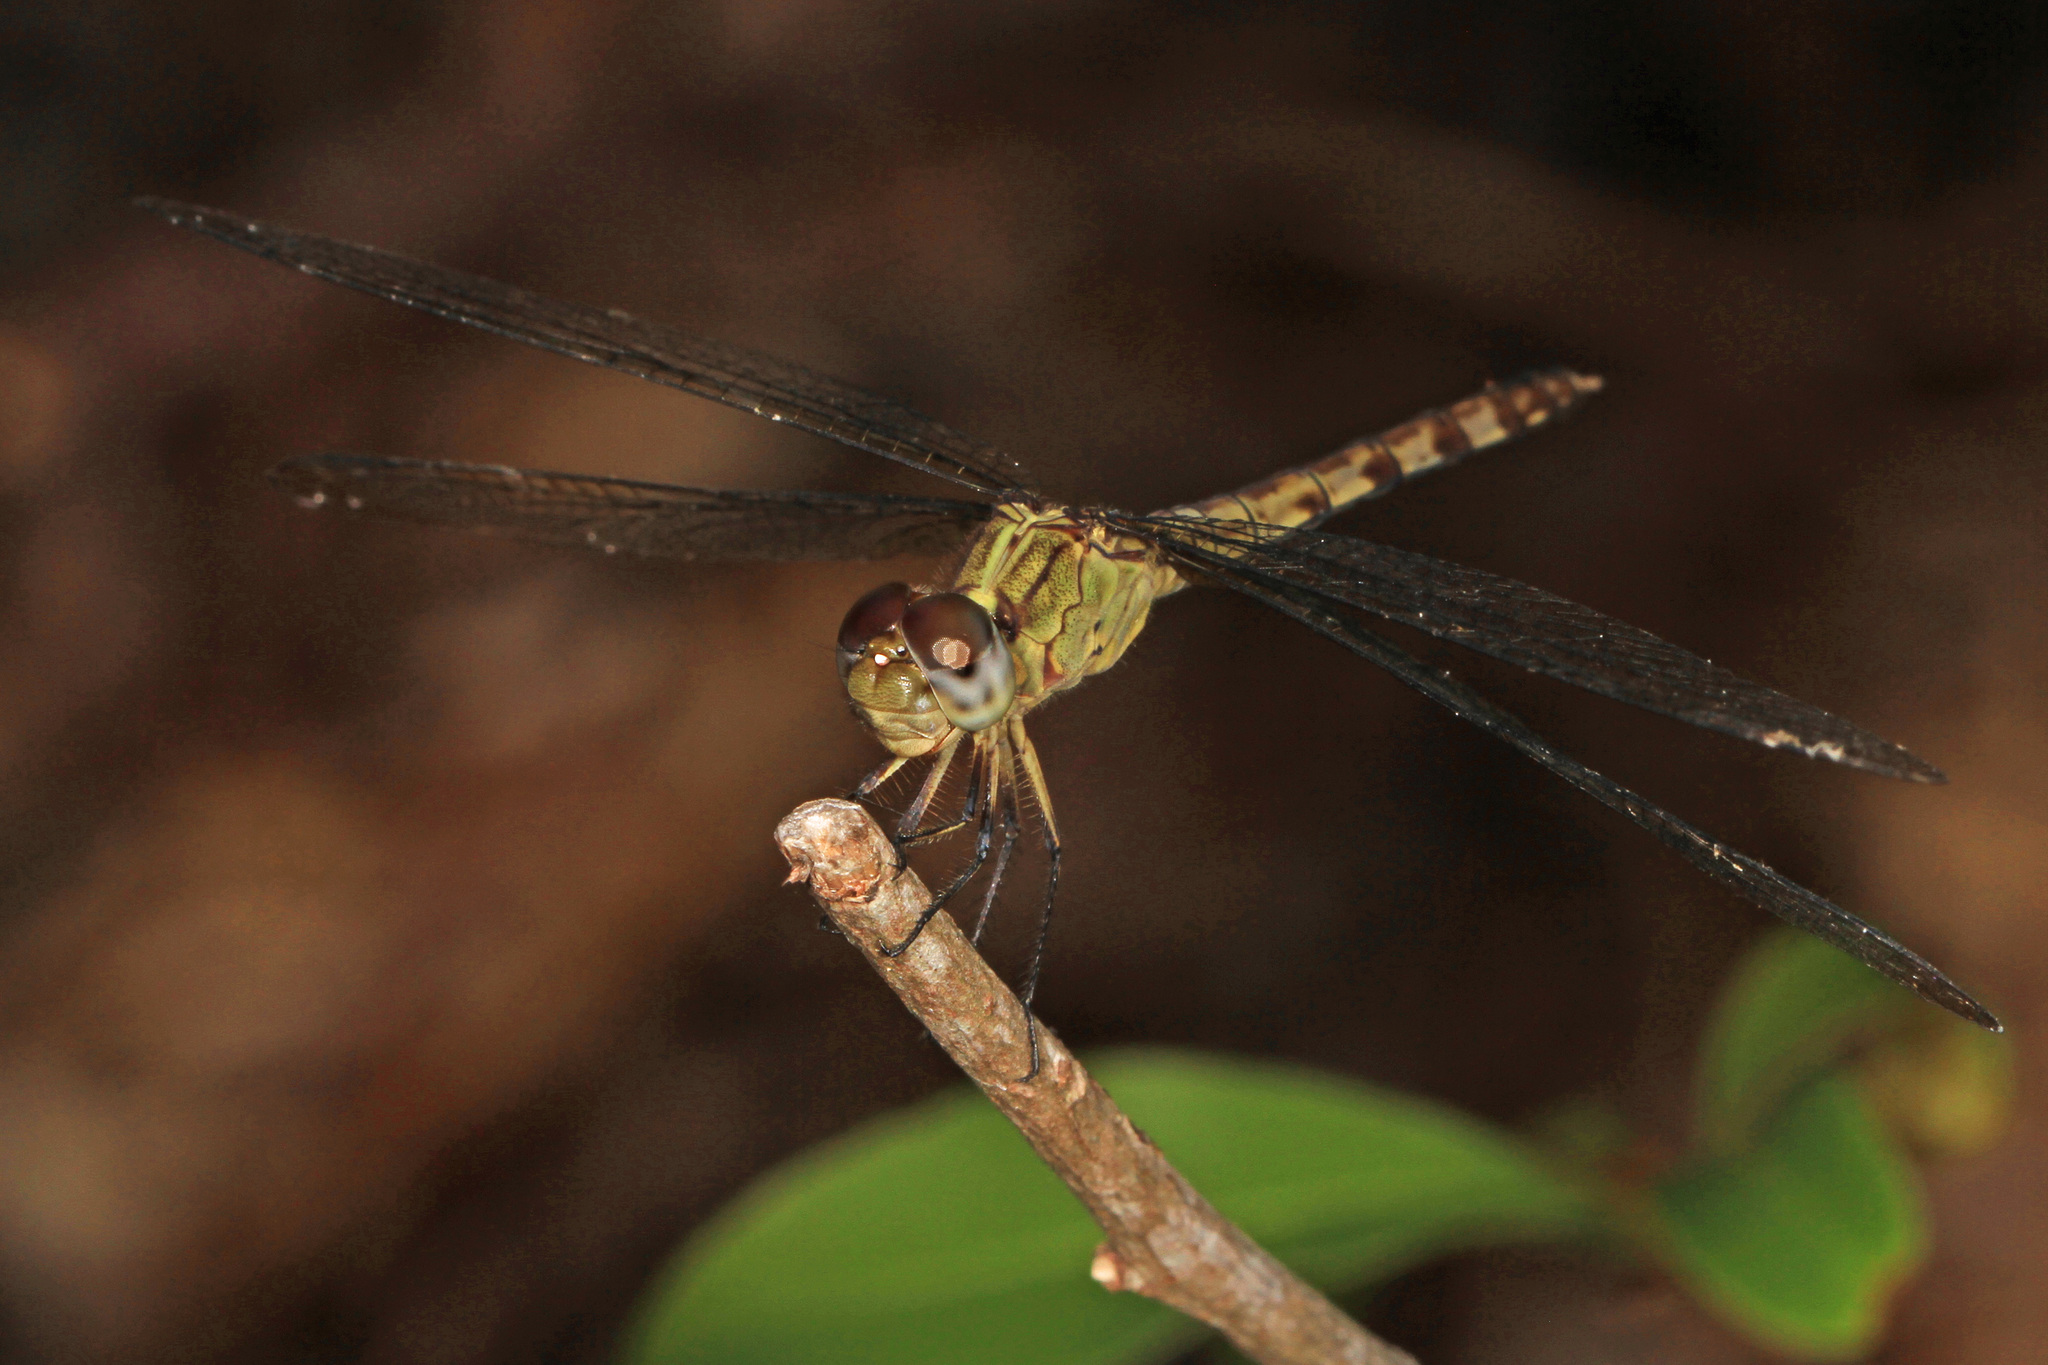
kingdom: Animalia
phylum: Arthropoda
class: Insecta
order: Odonata
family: Libellulidae
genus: Erythrodiplax
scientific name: Erythrodiplax umbrata
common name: Band-winged dragonlet
